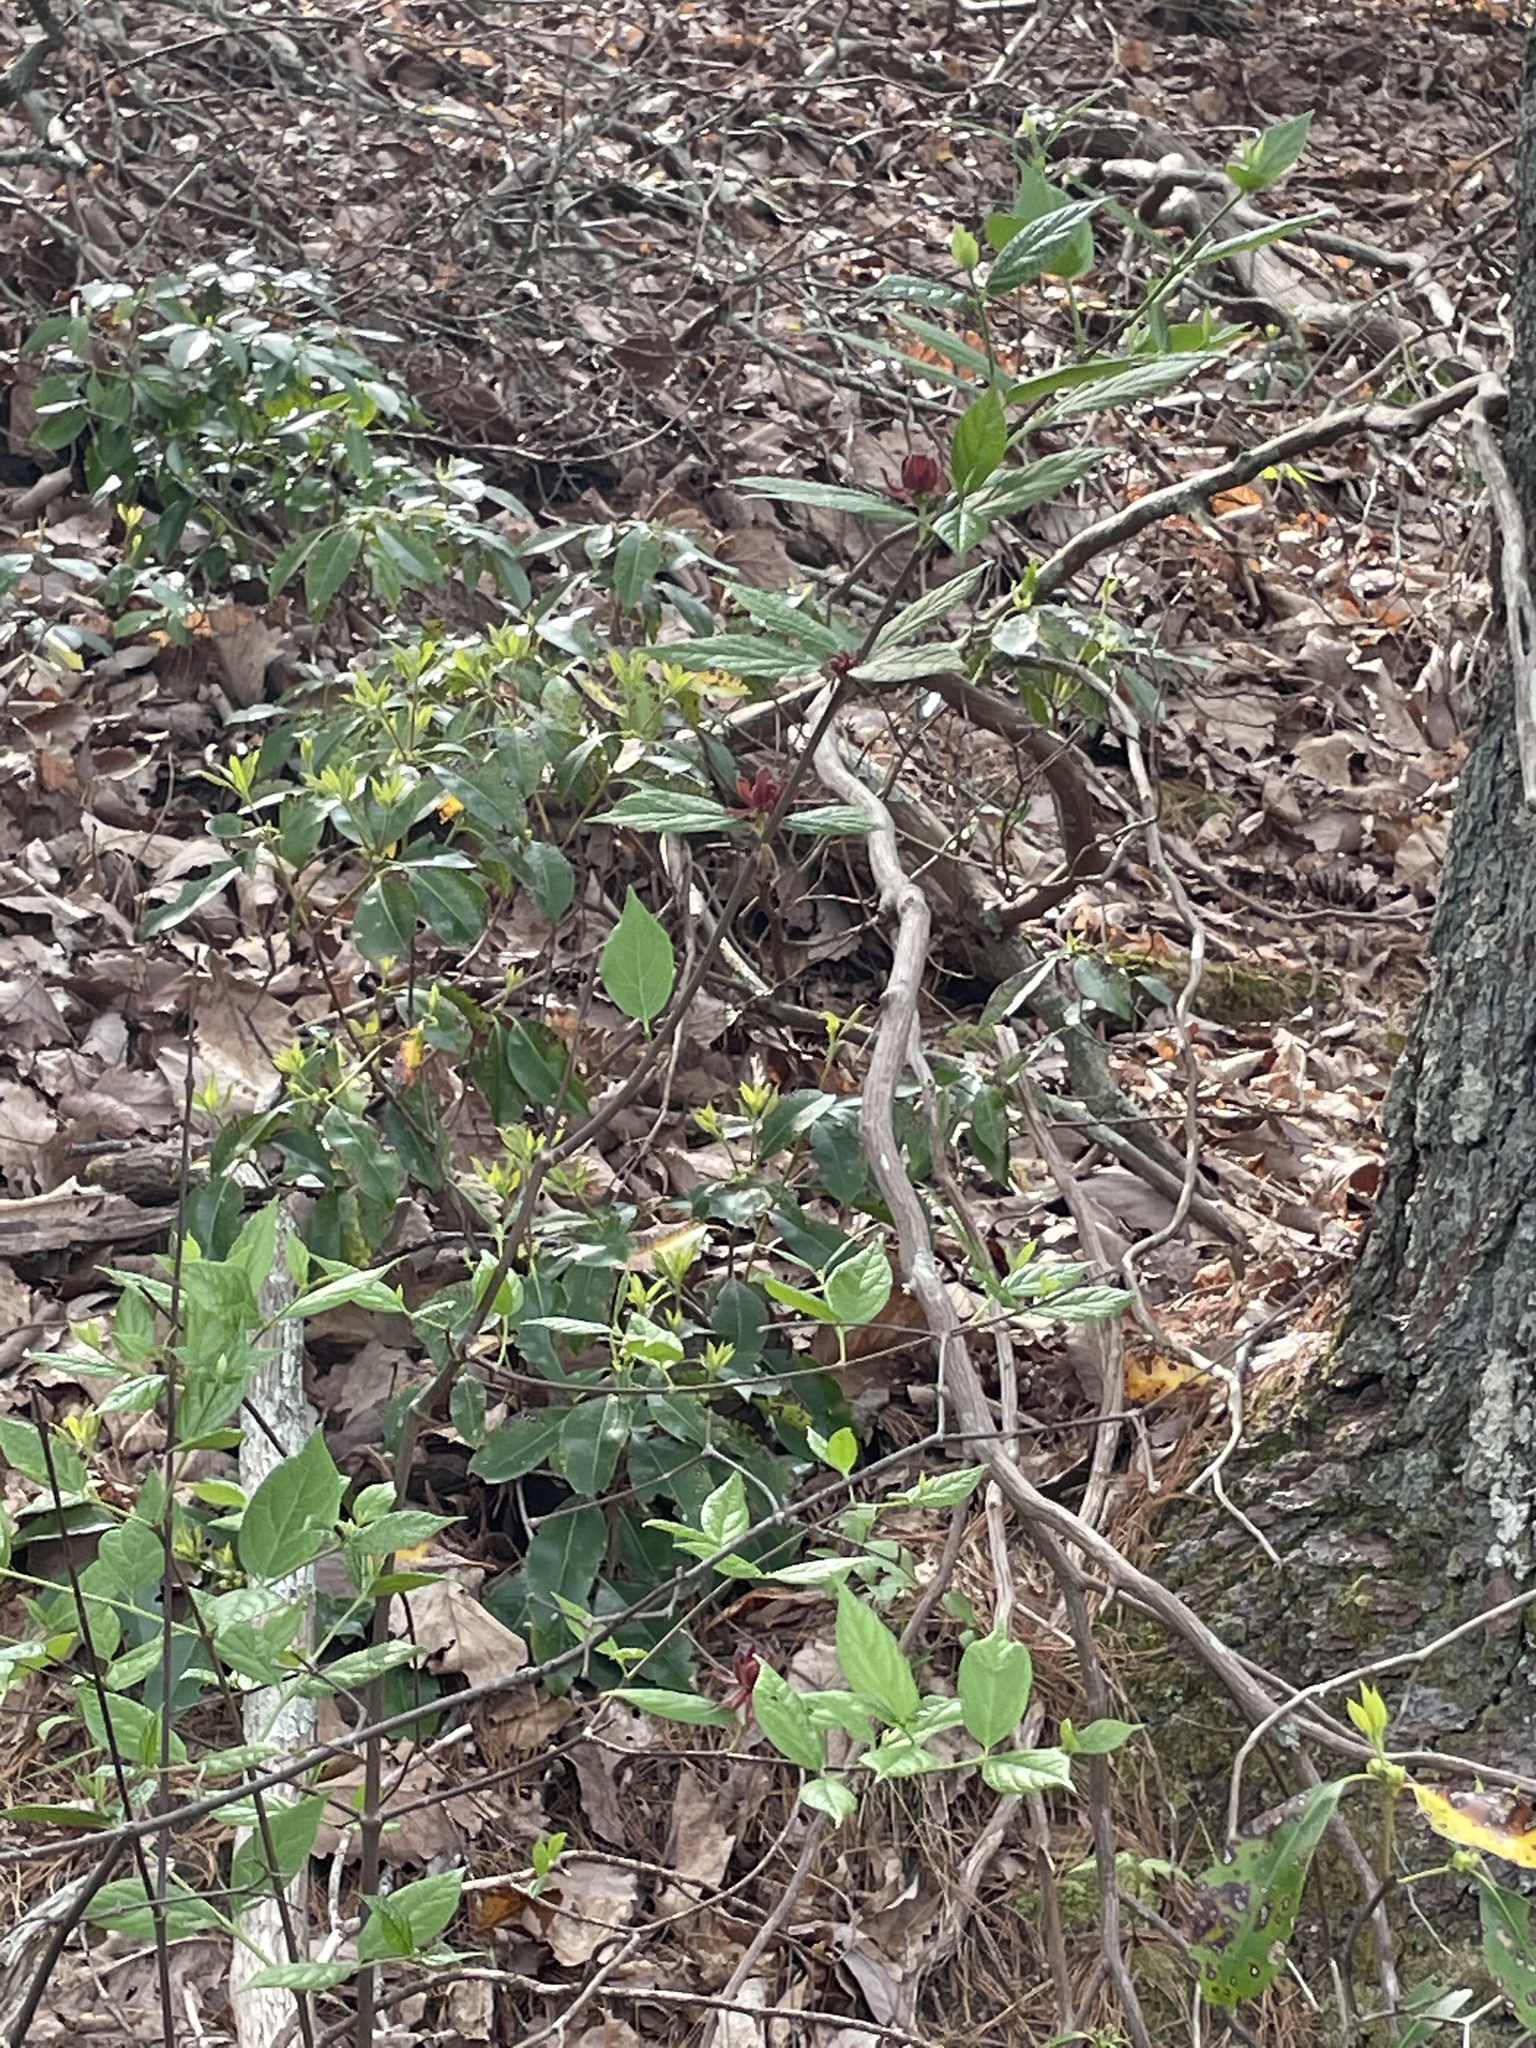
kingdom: Plantae
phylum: Tracheophyta
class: Magnoliopsida
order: Laurales
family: Calycanthaceae
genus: Calycanthus
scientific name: Calycanthus floridus
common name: Carolina-allspice
